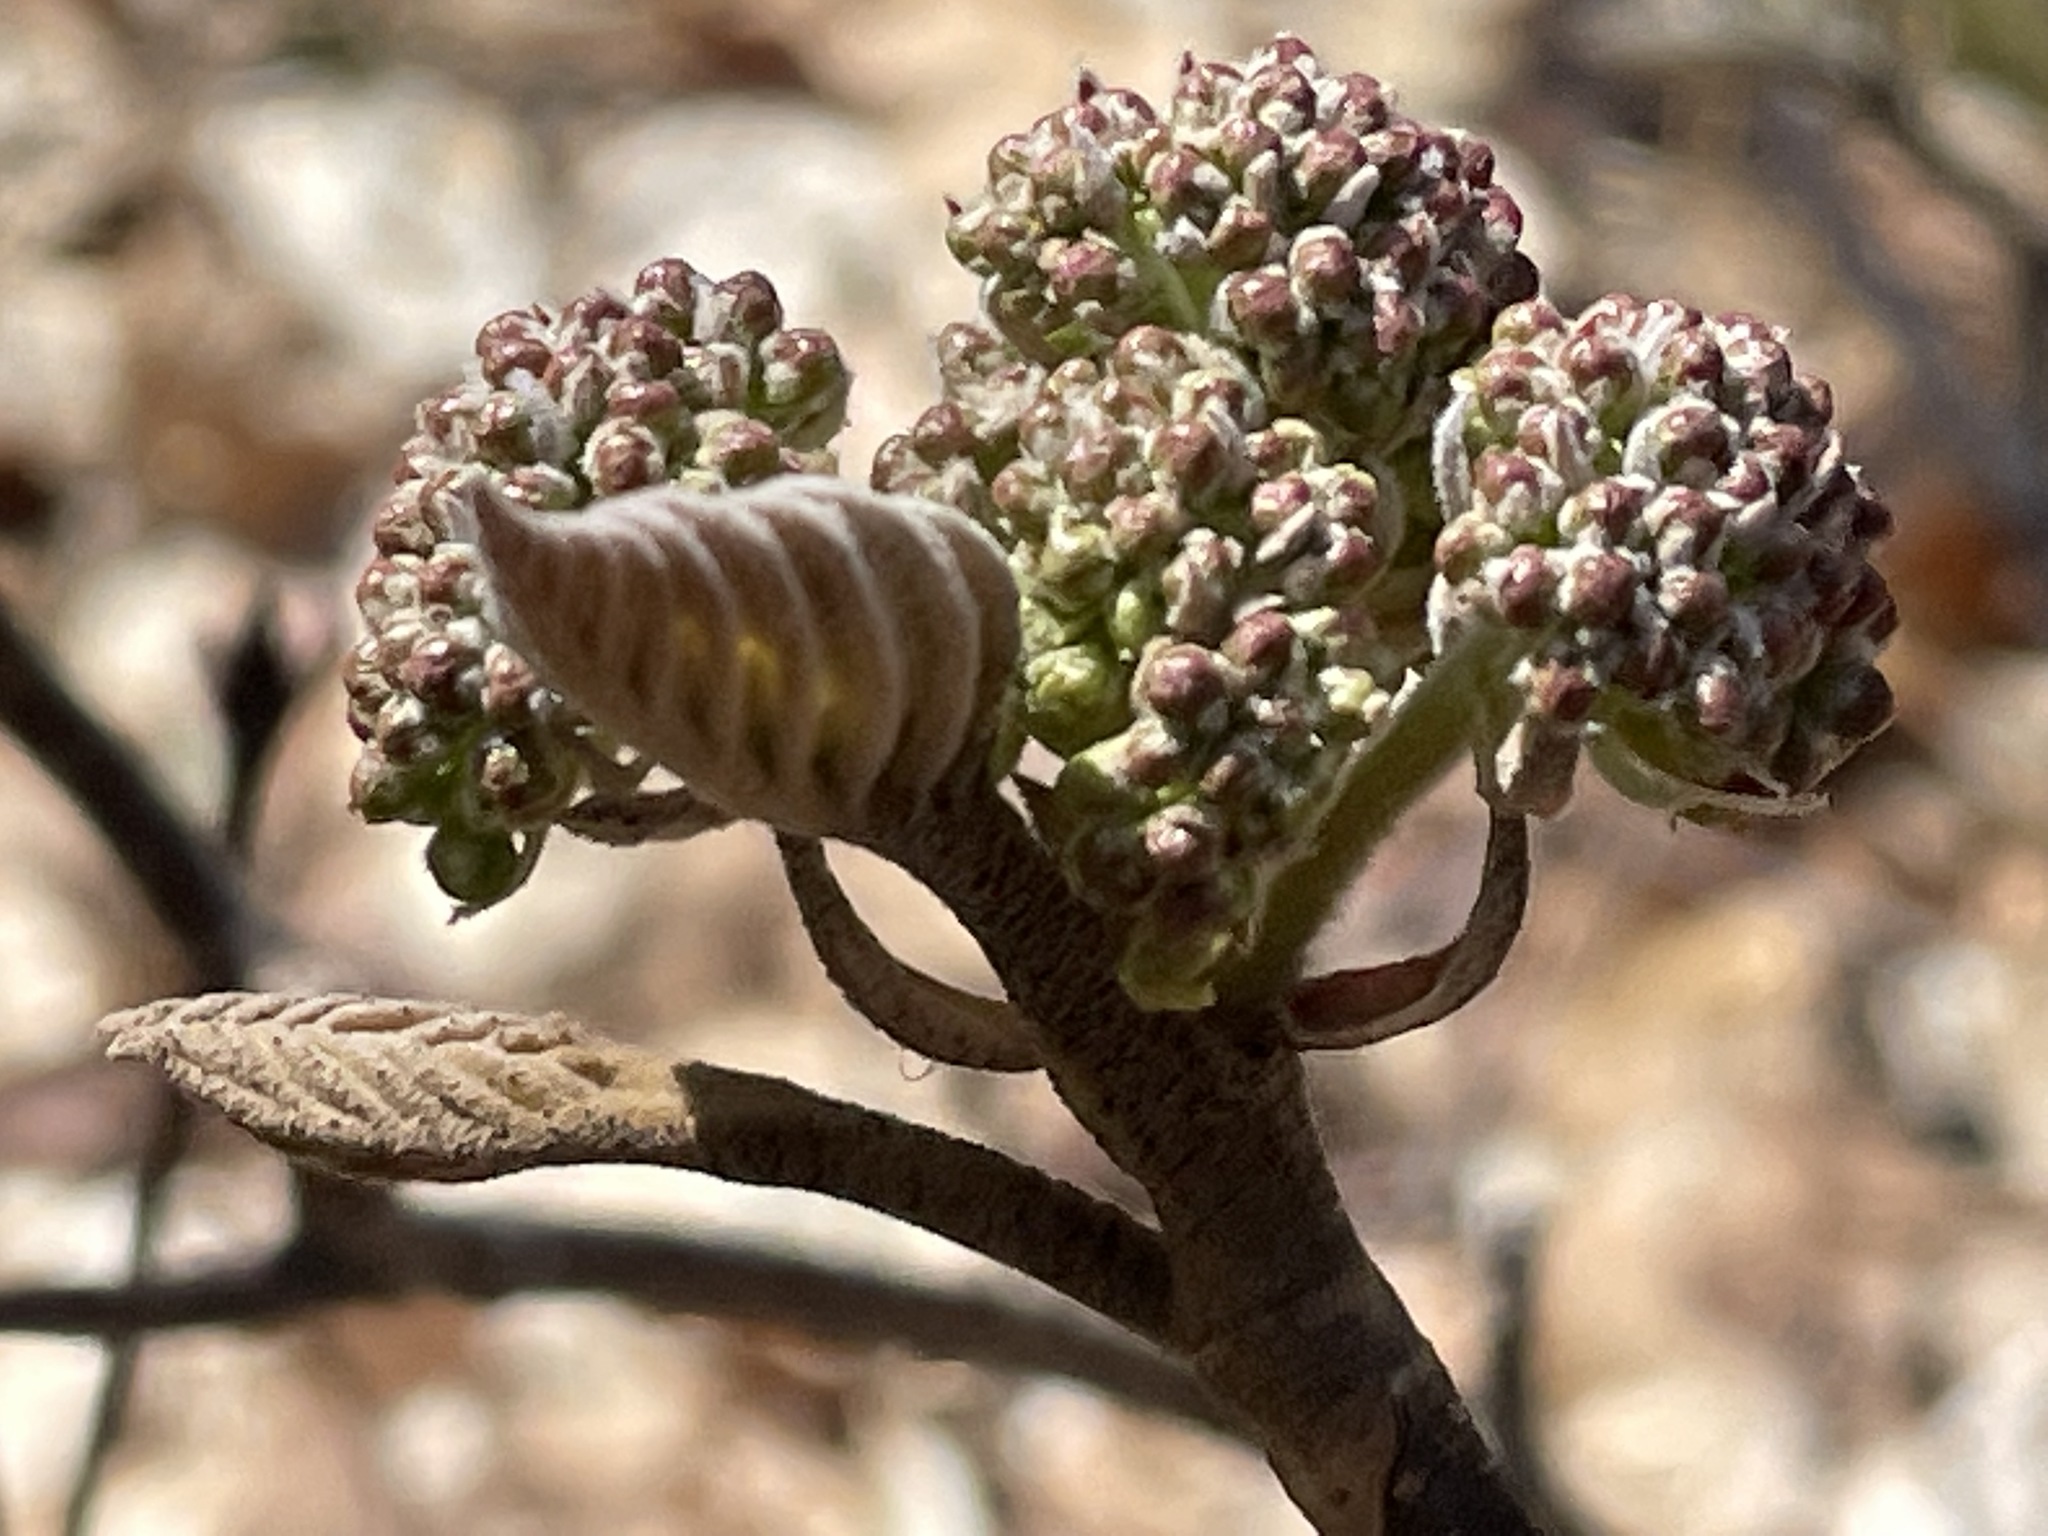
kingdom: Plantae
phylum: Tracheophyta
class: Magnoliopsida
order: Dipsacales
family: Viburnaceae
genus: Viburnum
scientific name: Viburnum lantanoides
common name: Hobblebush
